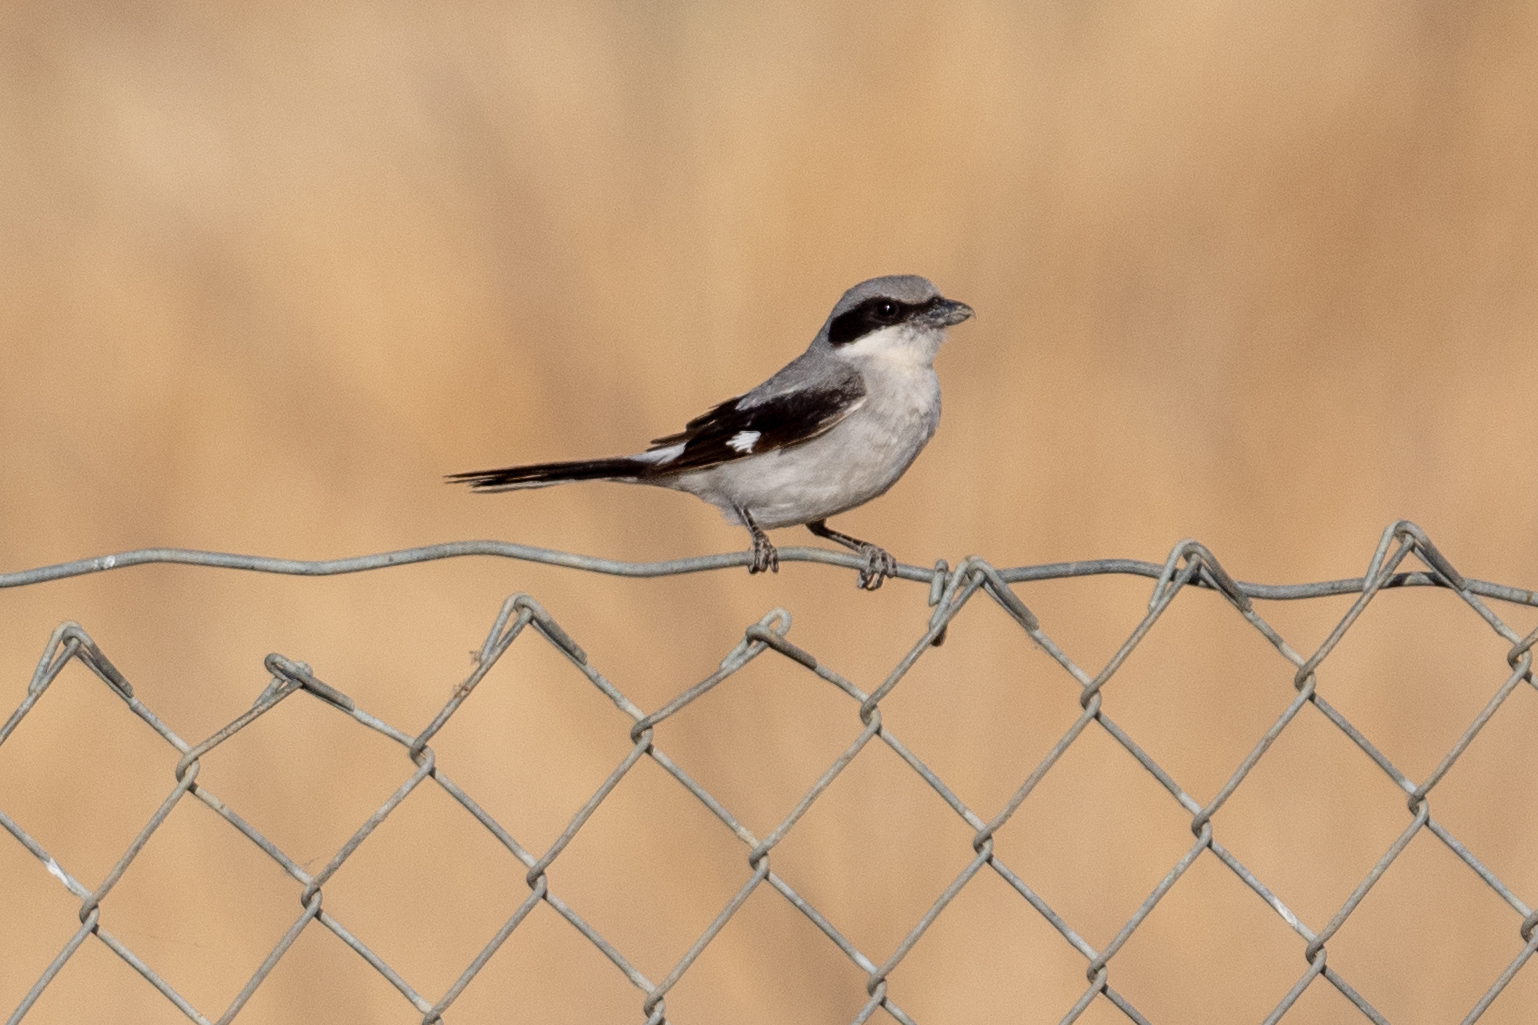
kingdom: Animalia
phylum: Chordata
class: Aves
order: Passeriformes
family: Laniidae
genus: Lanius
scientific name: Lanius ludovicianus
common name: Loggerhead shrike
